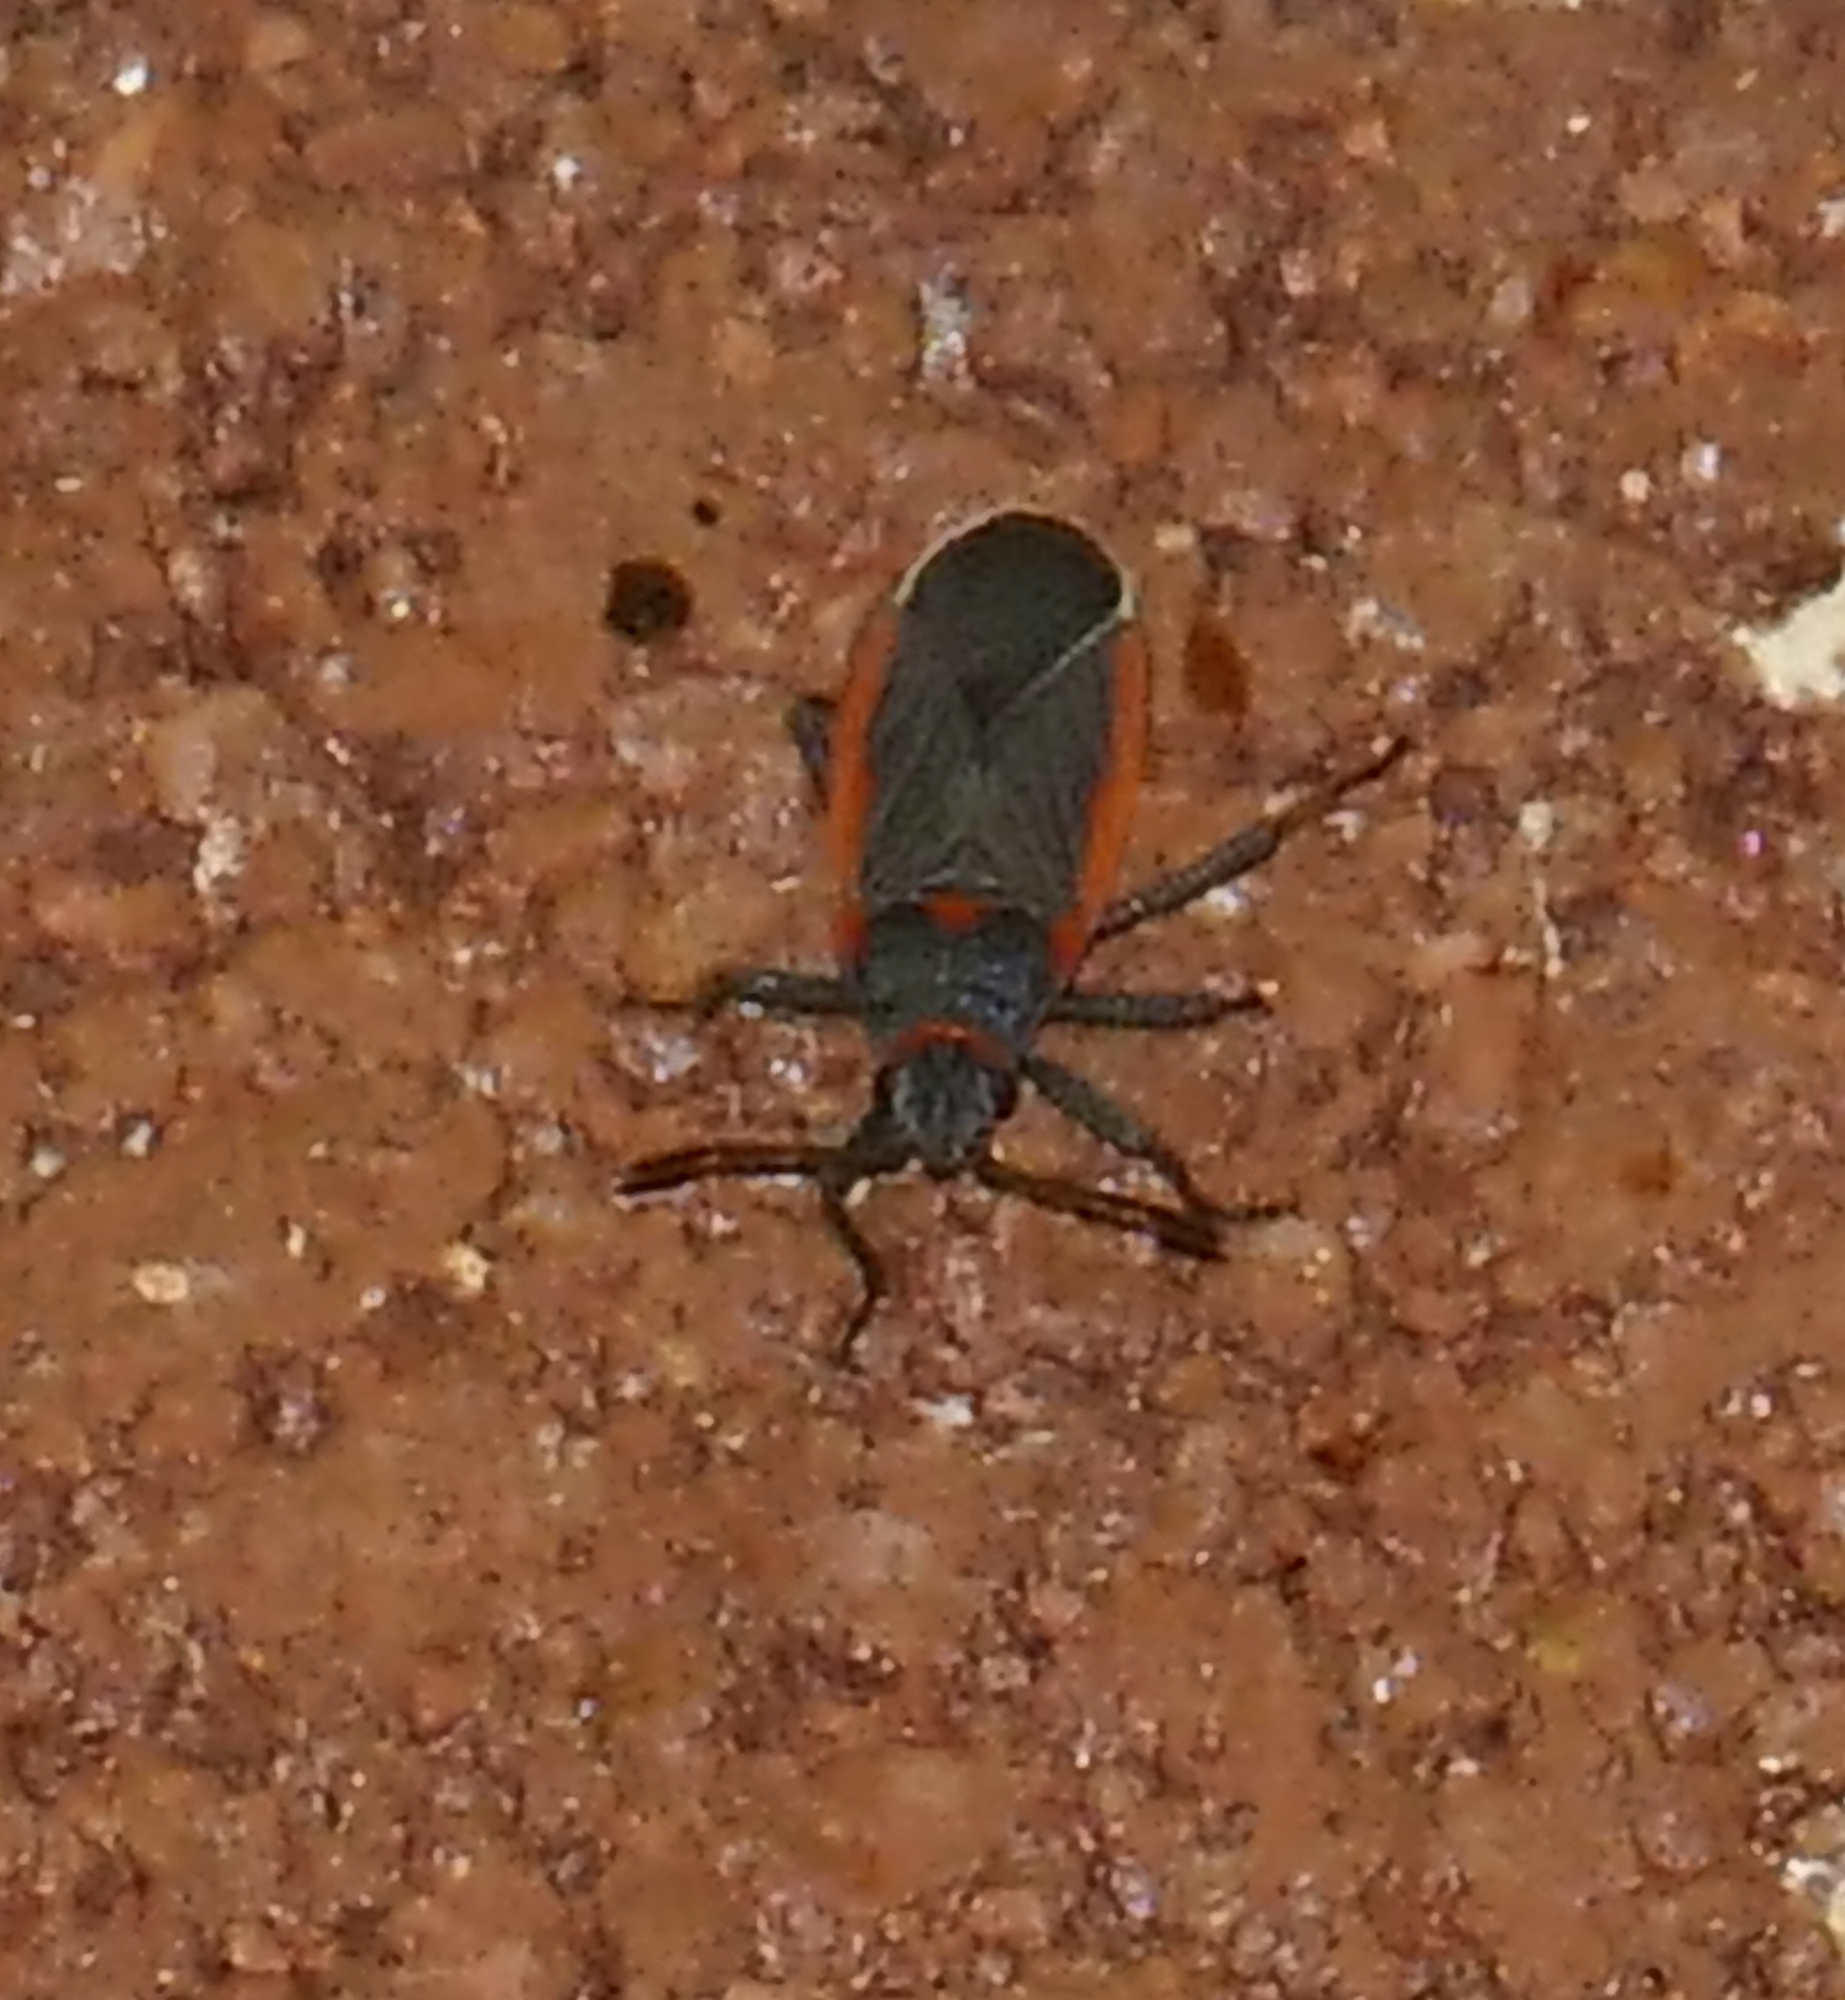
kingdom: Animalia
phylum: Arthropoda
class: Insecta
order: Hemiptera
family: Lygaeidae
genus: Melacoryphus
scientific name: Melacoryphus lateralis
